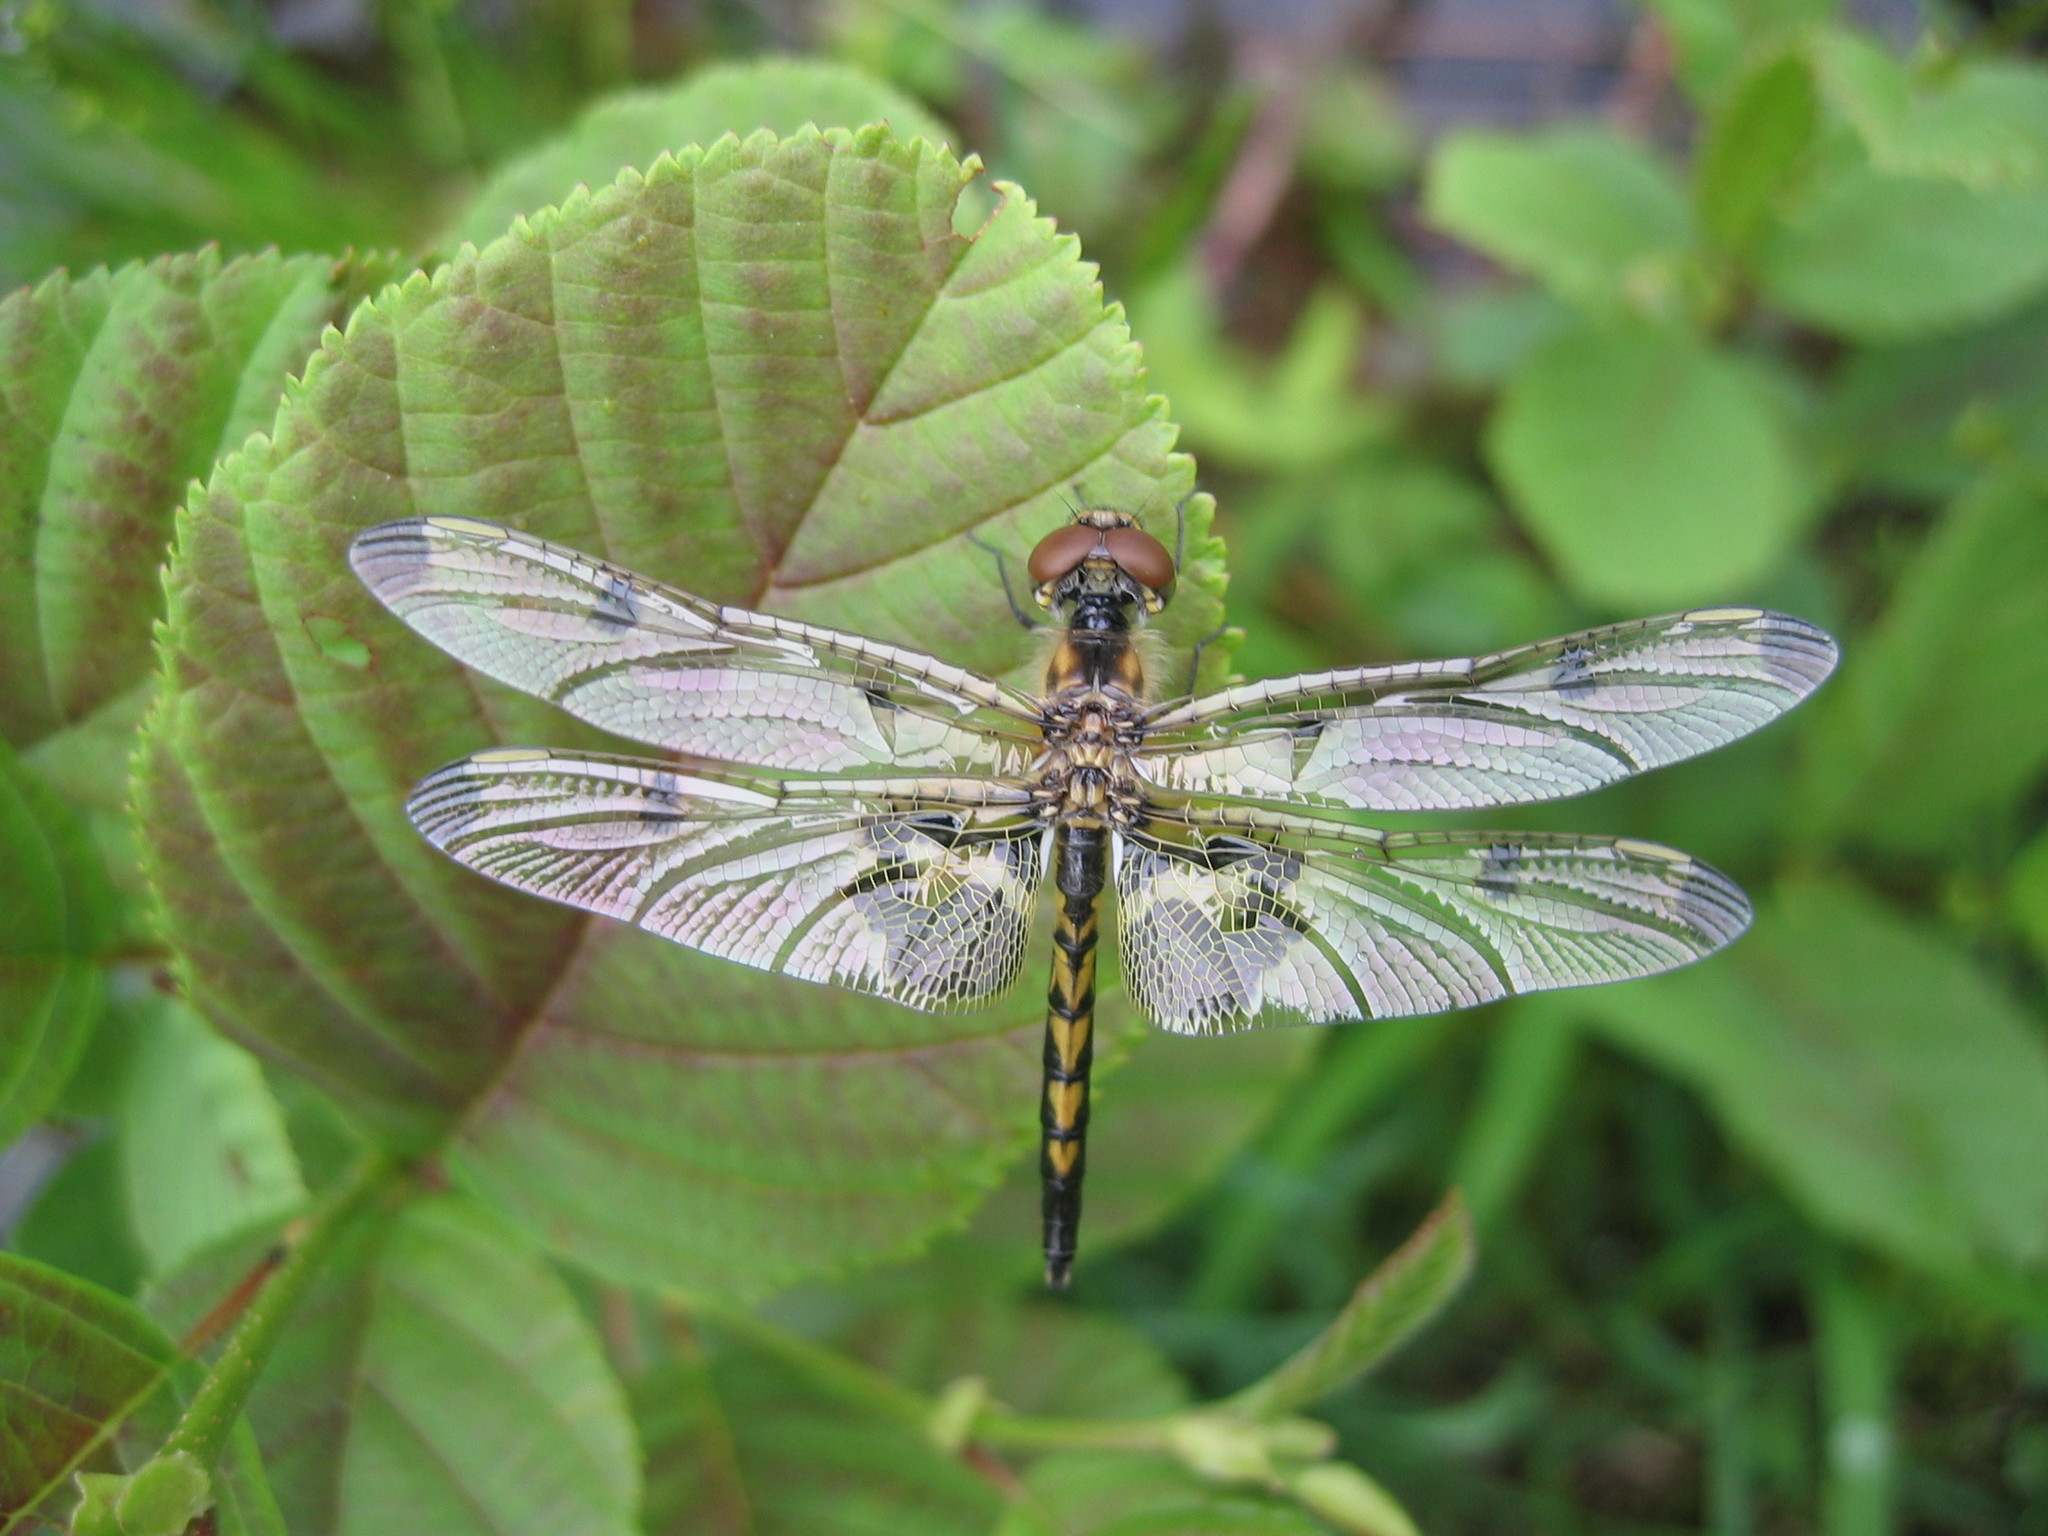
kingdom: Animalia
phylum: Arthropoda
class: Insecta
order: Odonata
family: Libellulidae
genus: Celithemis
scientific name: Celithemis elisa
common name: Calico pennant
